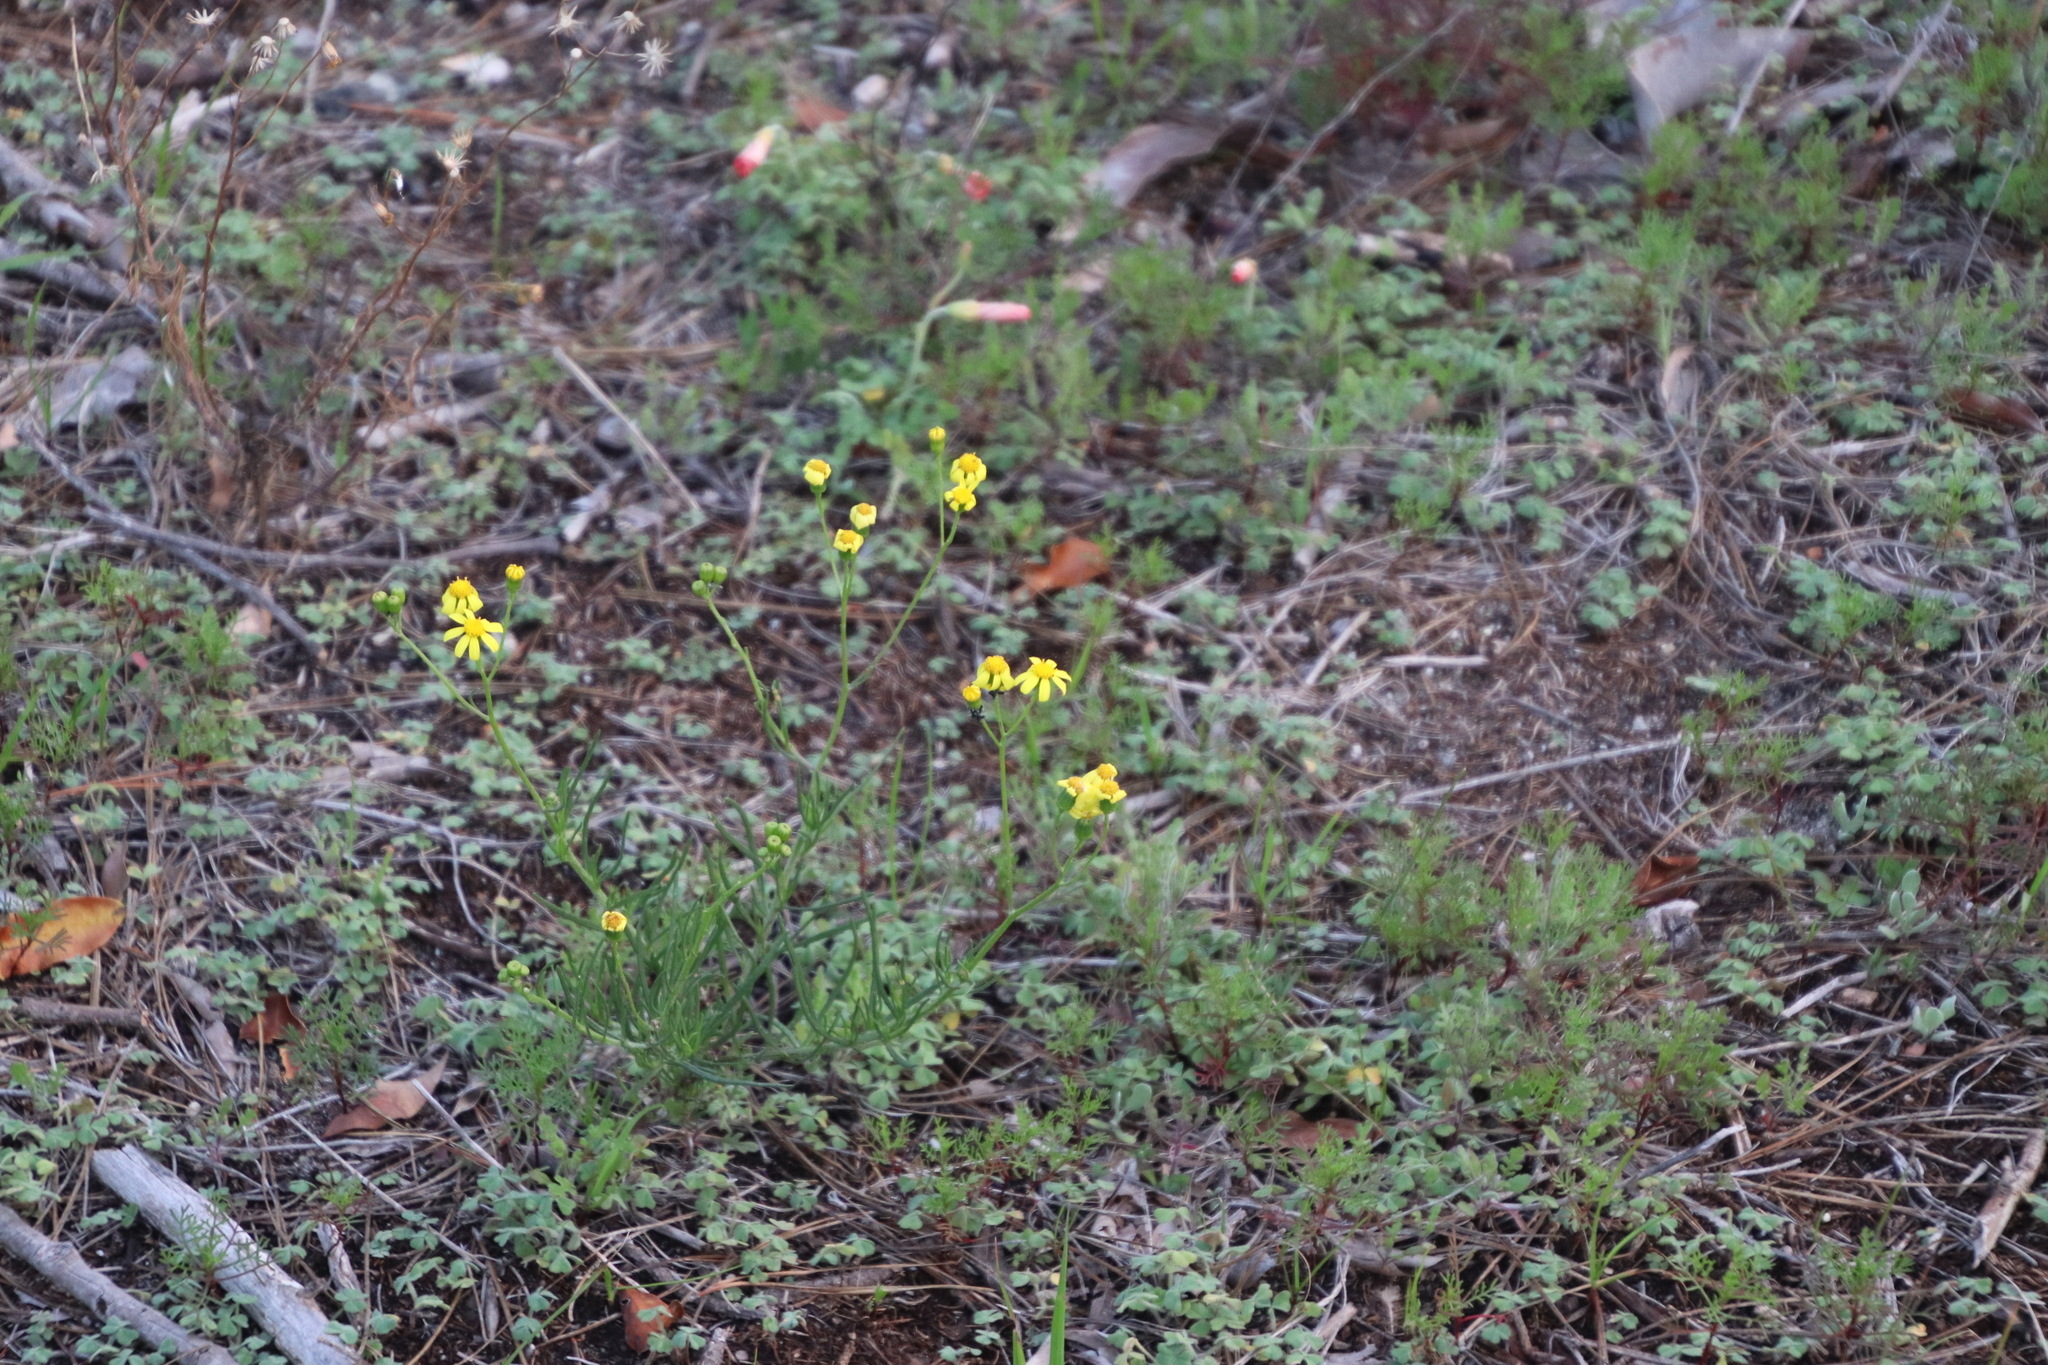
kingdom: Plantae
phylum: Tracheophyta
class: Magnoliopsida
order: Asterales
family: Asteraceae
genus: Senecio
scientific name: Senecio burchellii
